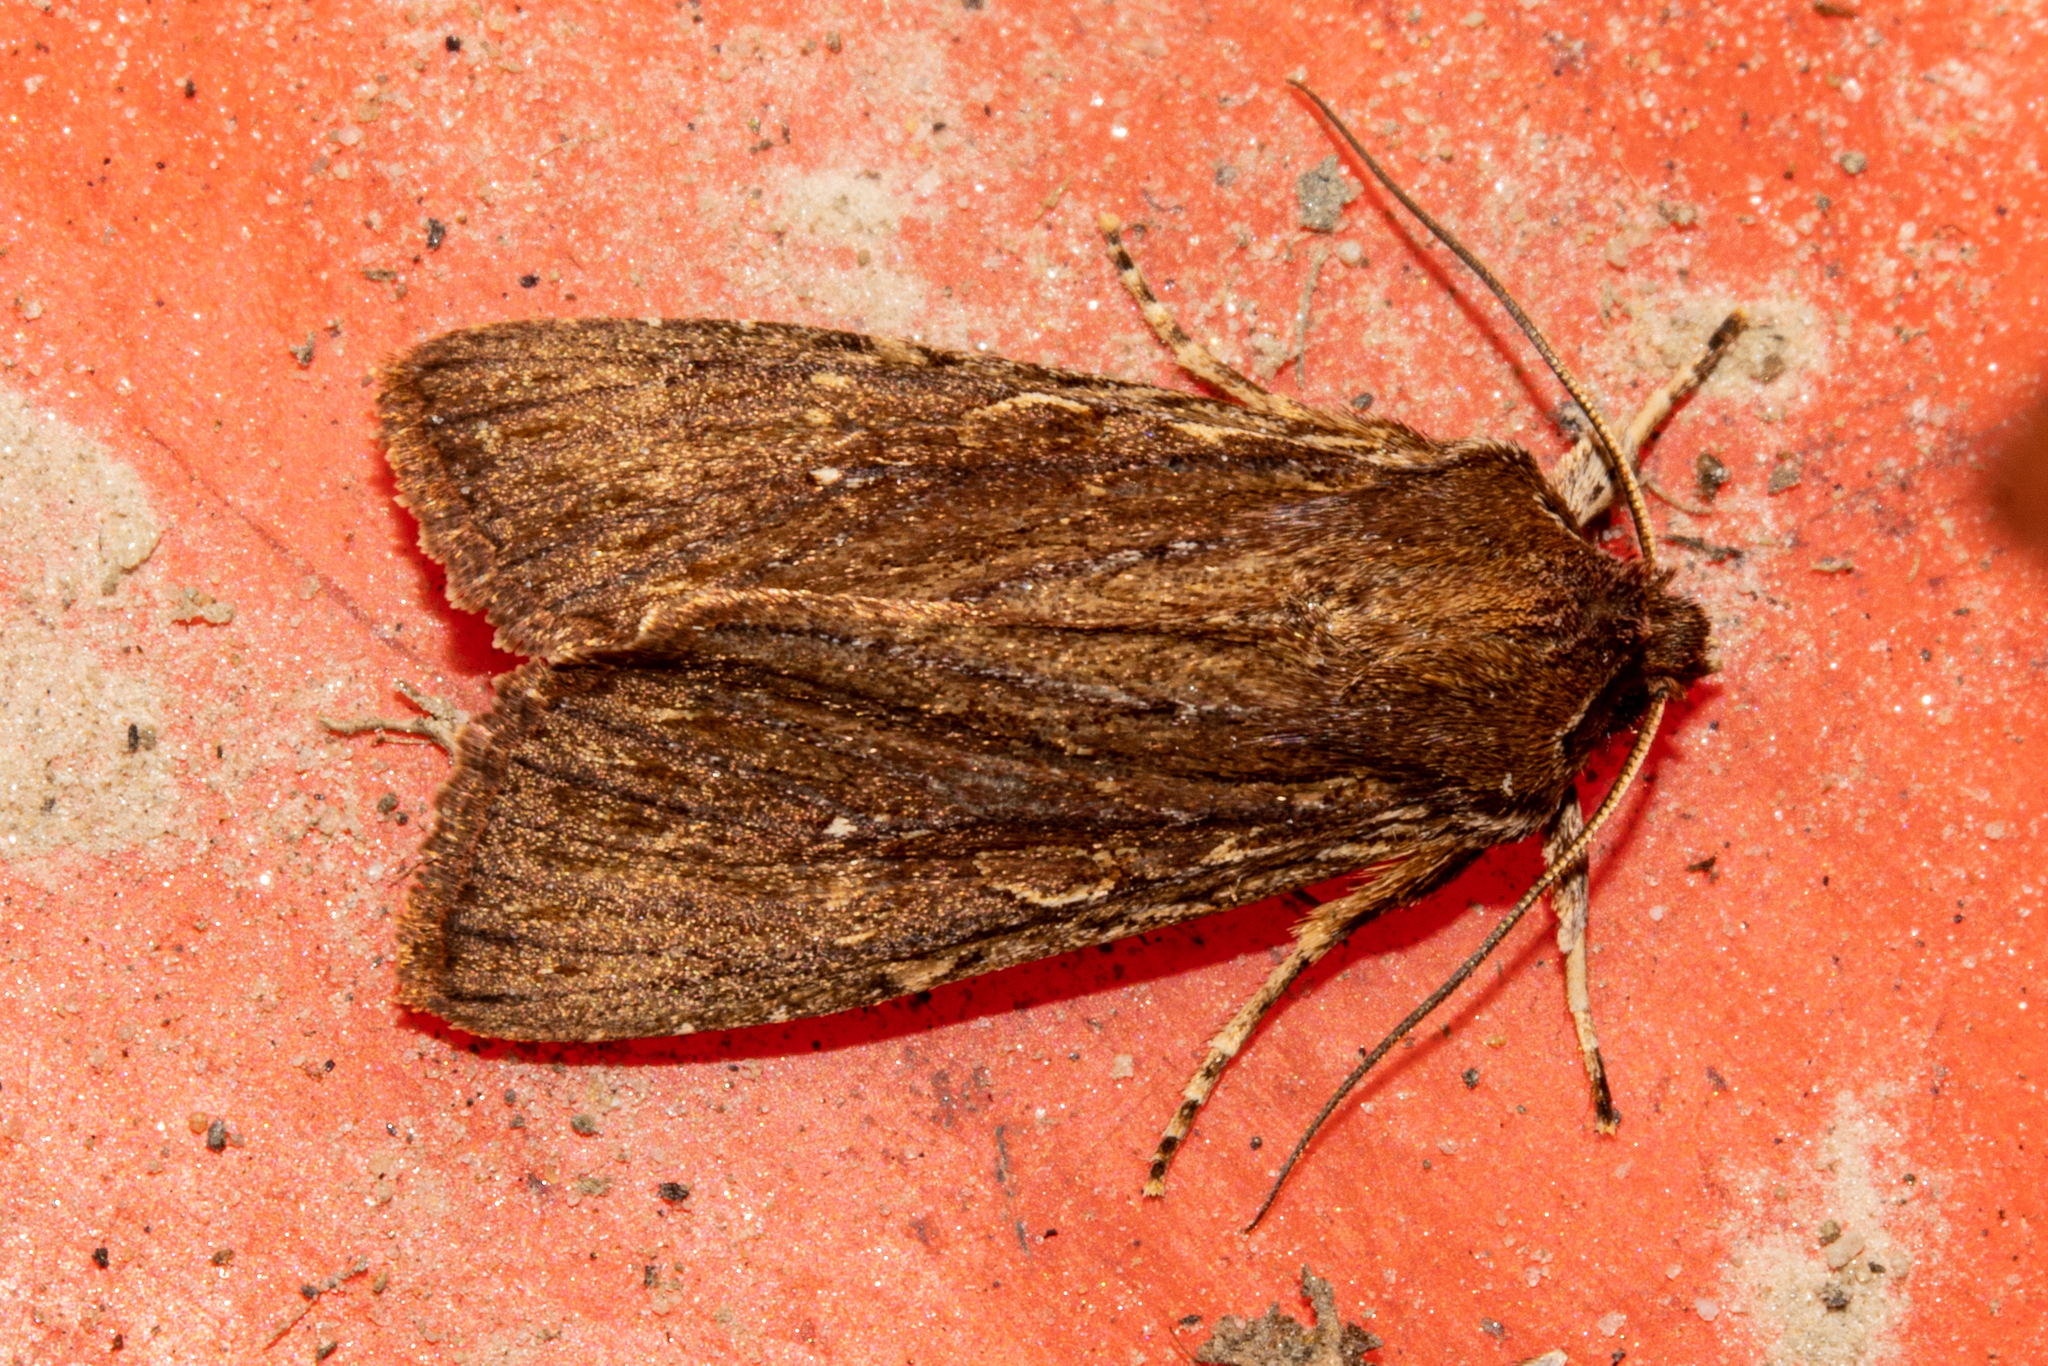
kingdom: Animalia
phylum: Arthropoda
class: Insecta
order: Lepidoptera
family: Noctuidae
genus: Ichneutica
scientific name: Ichneutica
